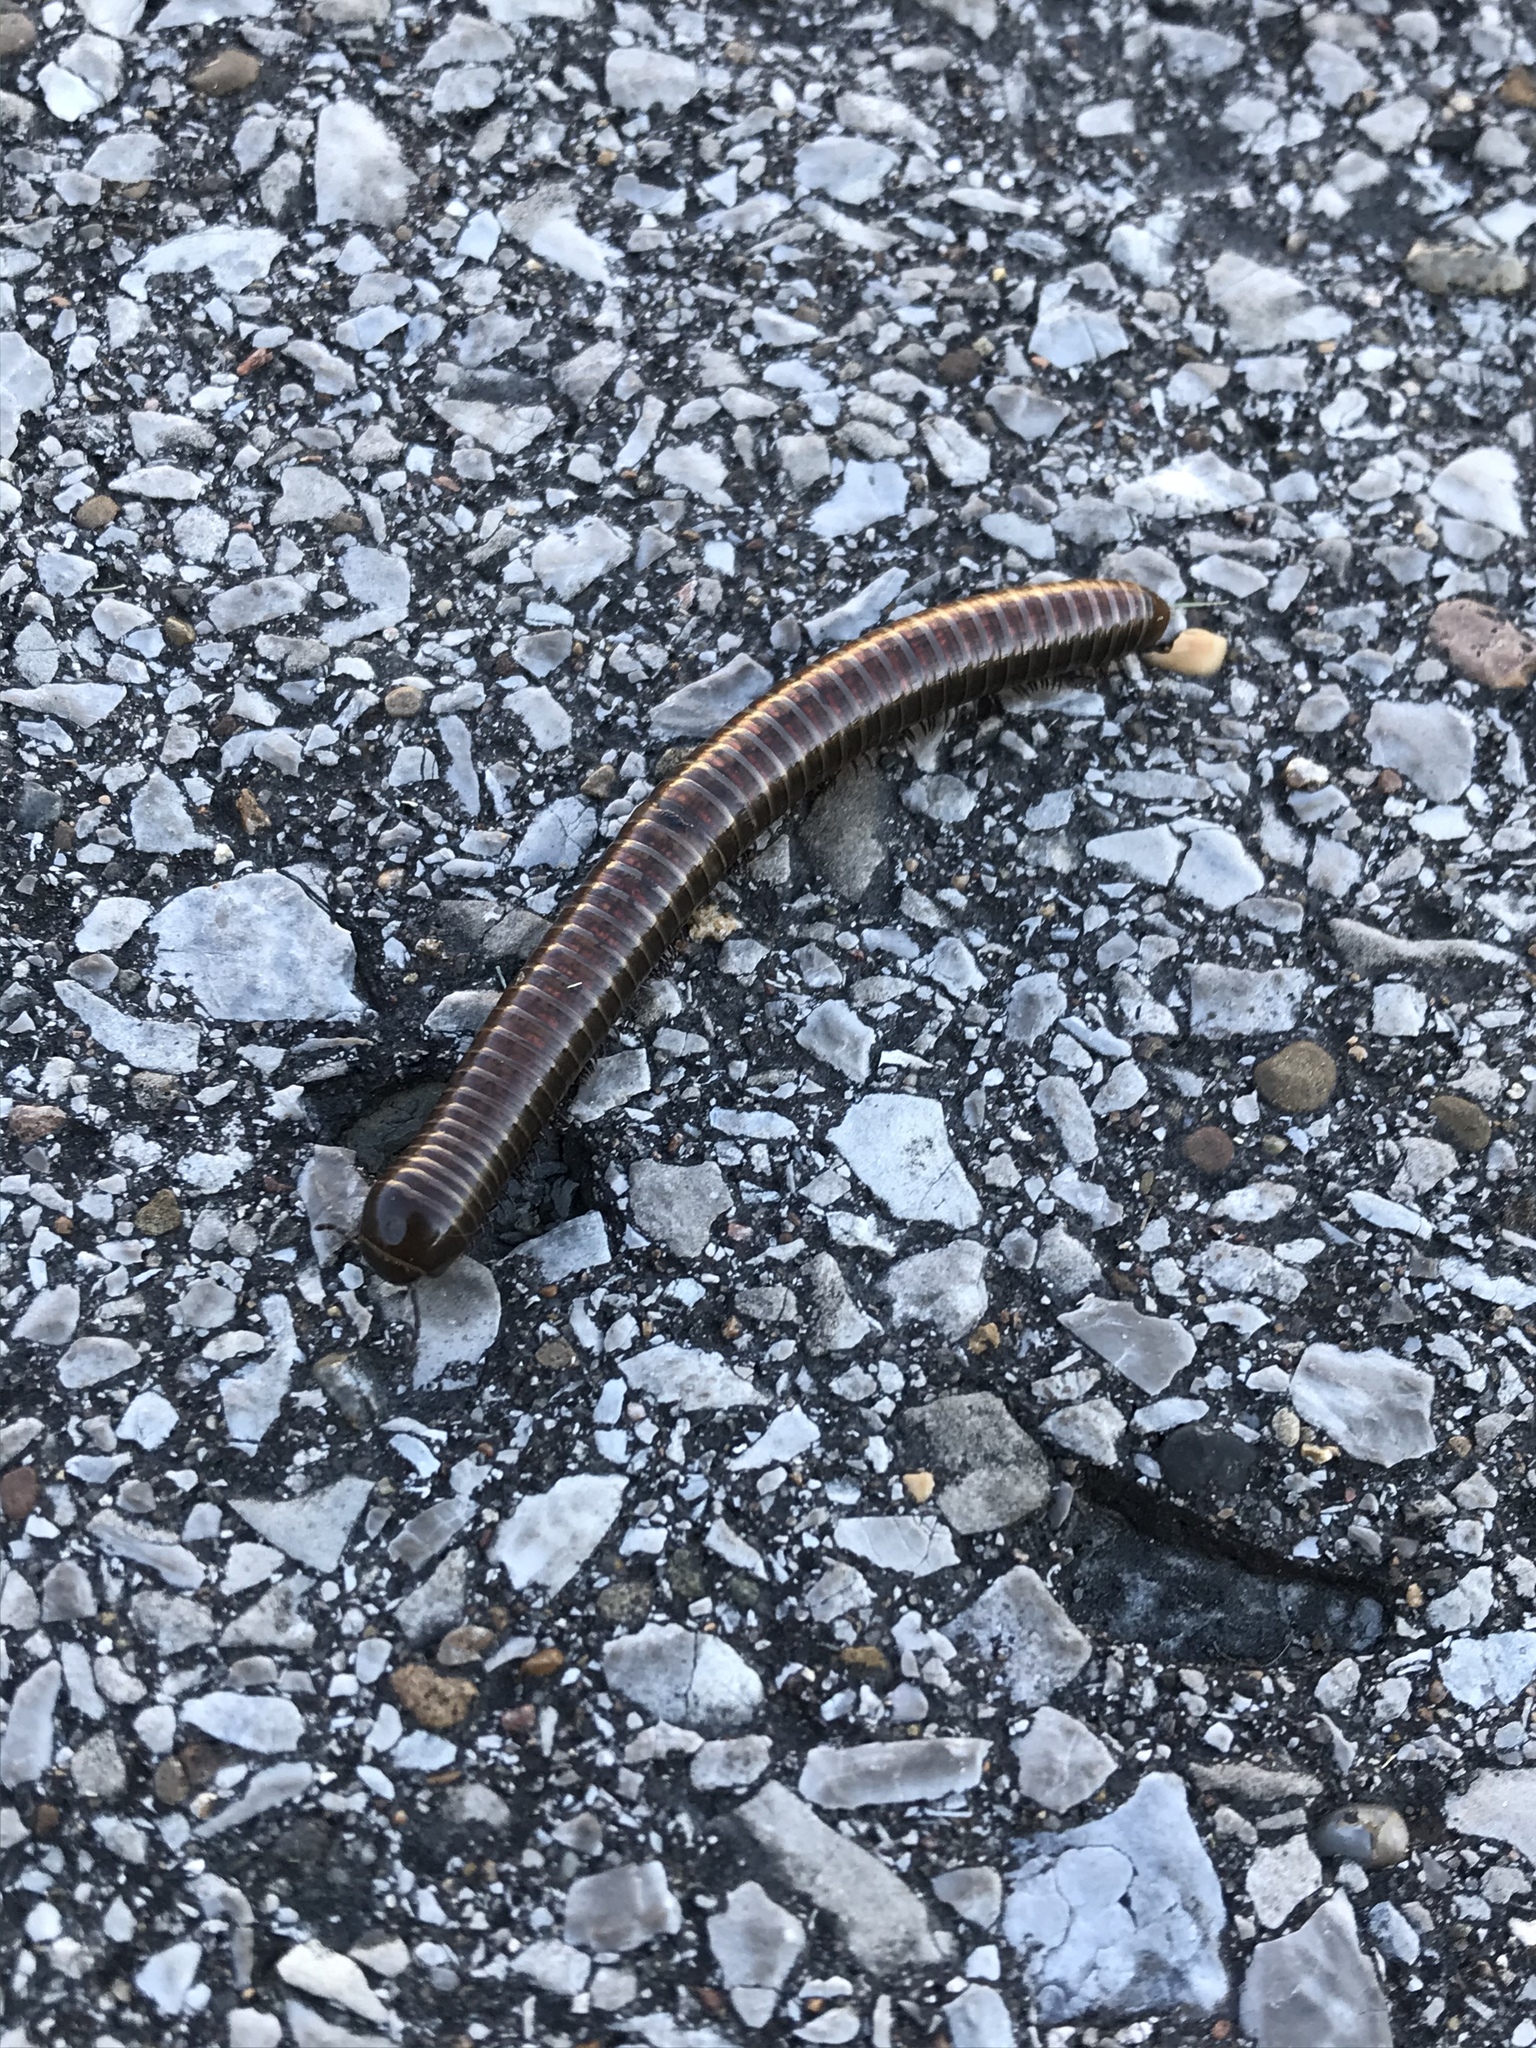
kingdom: Animalia
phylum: Arthropoda
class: Diplopoda
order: Spirostreptida
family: Choctellidae
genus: Choctella
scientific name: Choctella cumminsi
